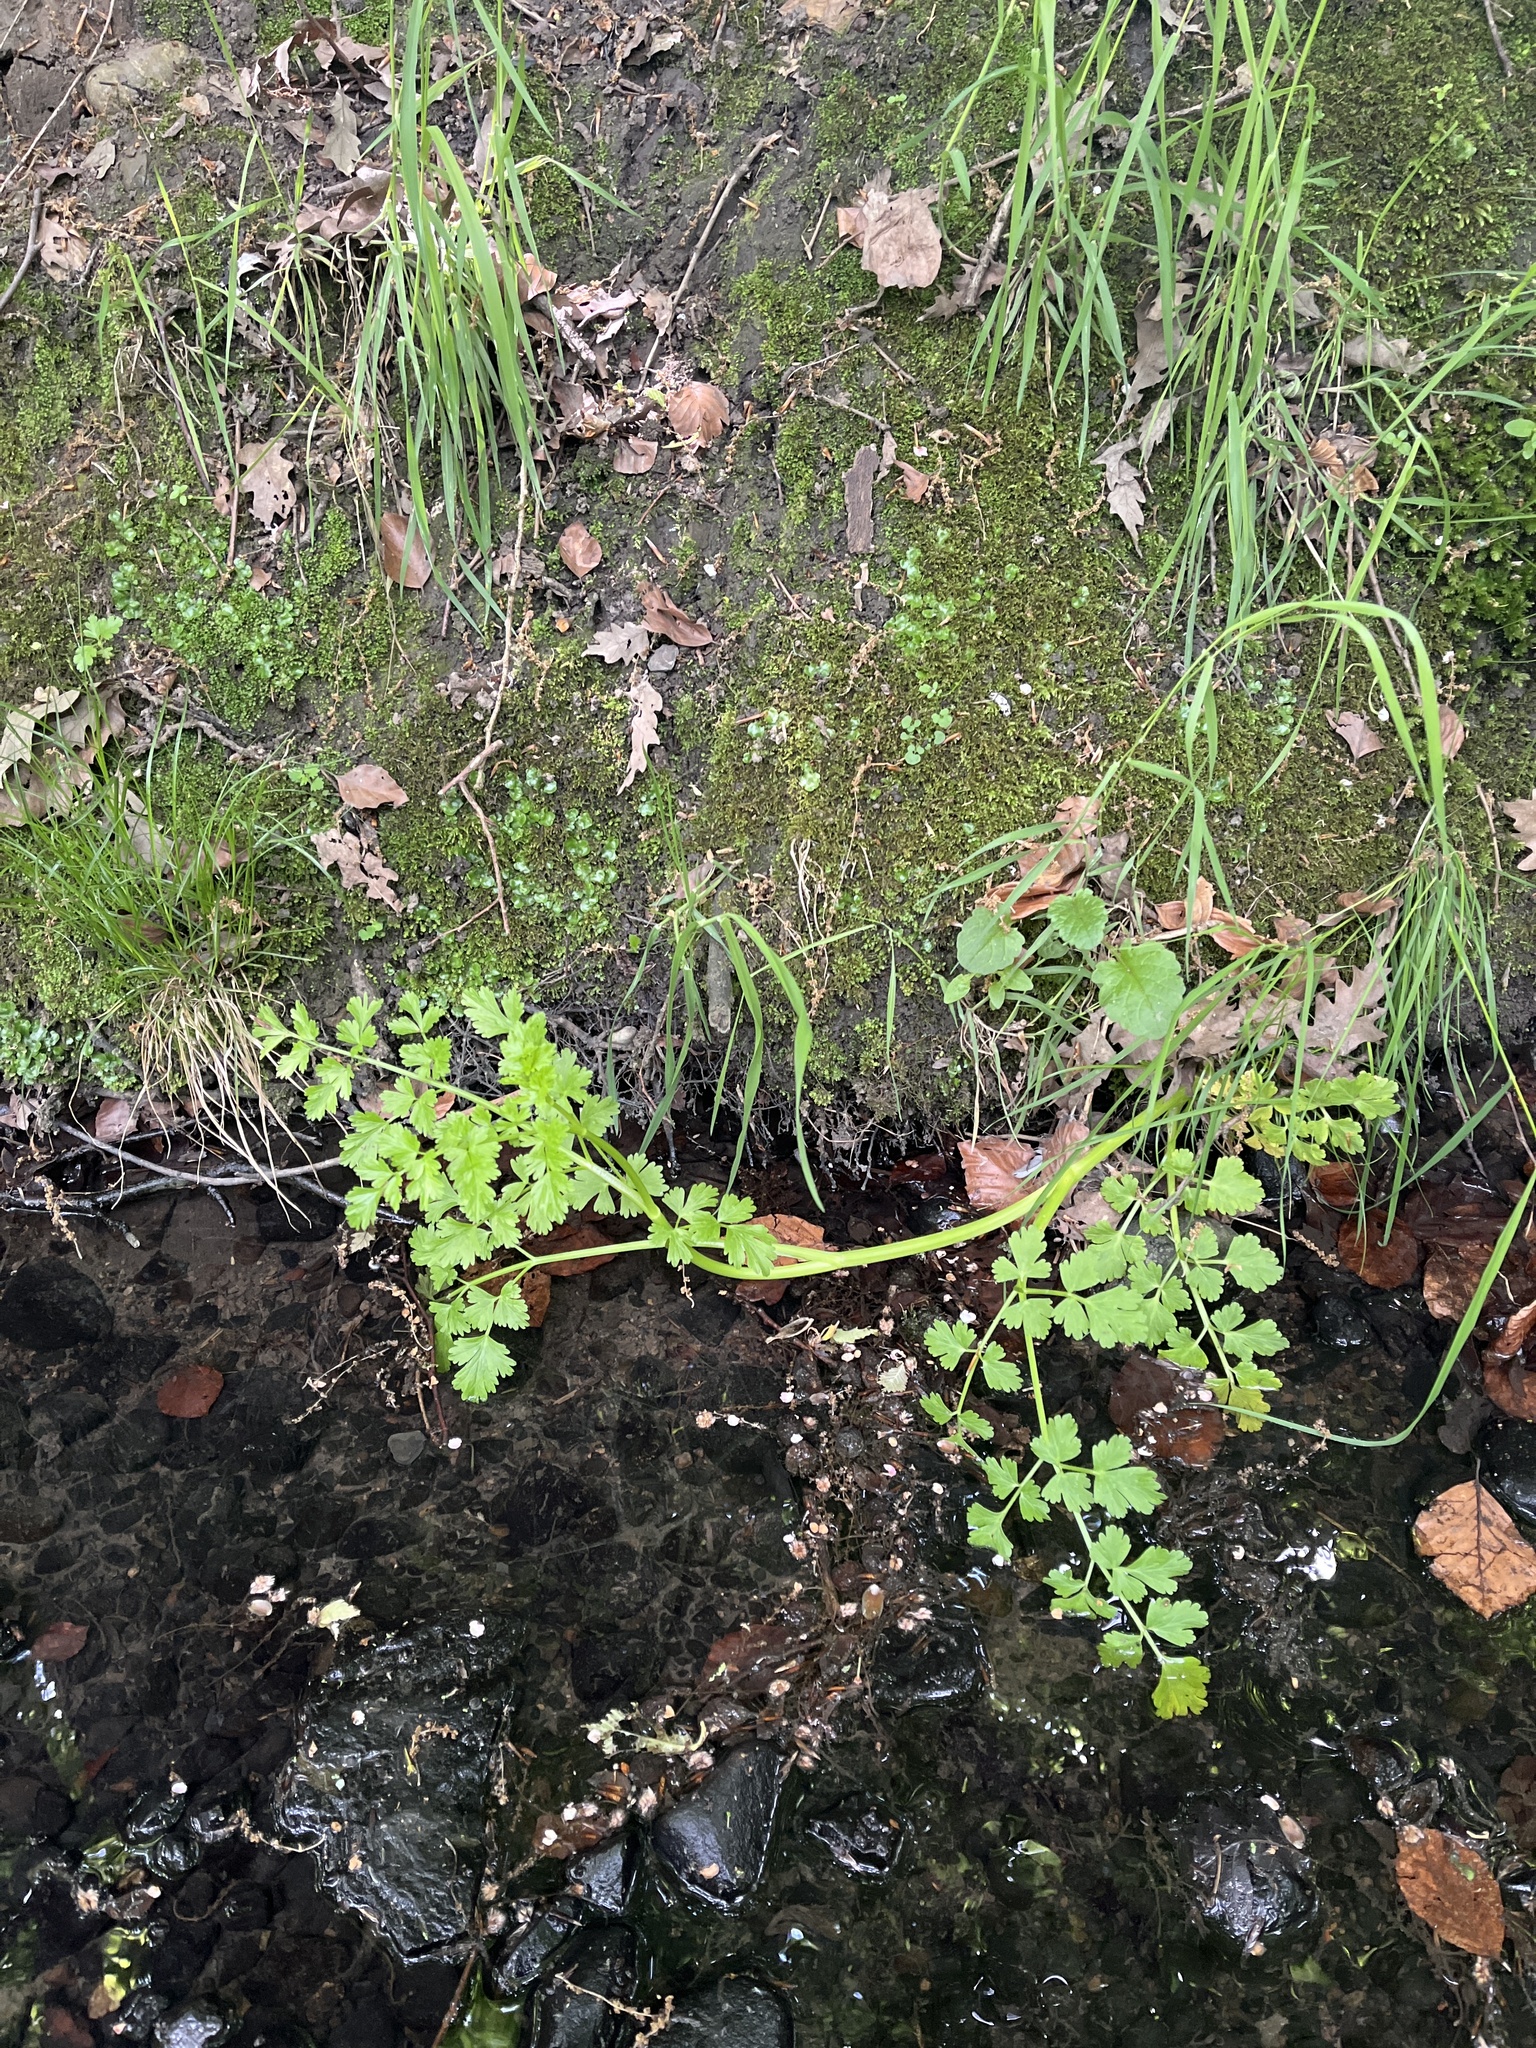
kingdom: Plantae
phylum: Tracheophyta
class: Magnoliopsida
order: Apiales
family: Apiaceae
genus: Oenanthe
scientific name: Oenanthe crocata
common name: Hemlock water-dropwort
